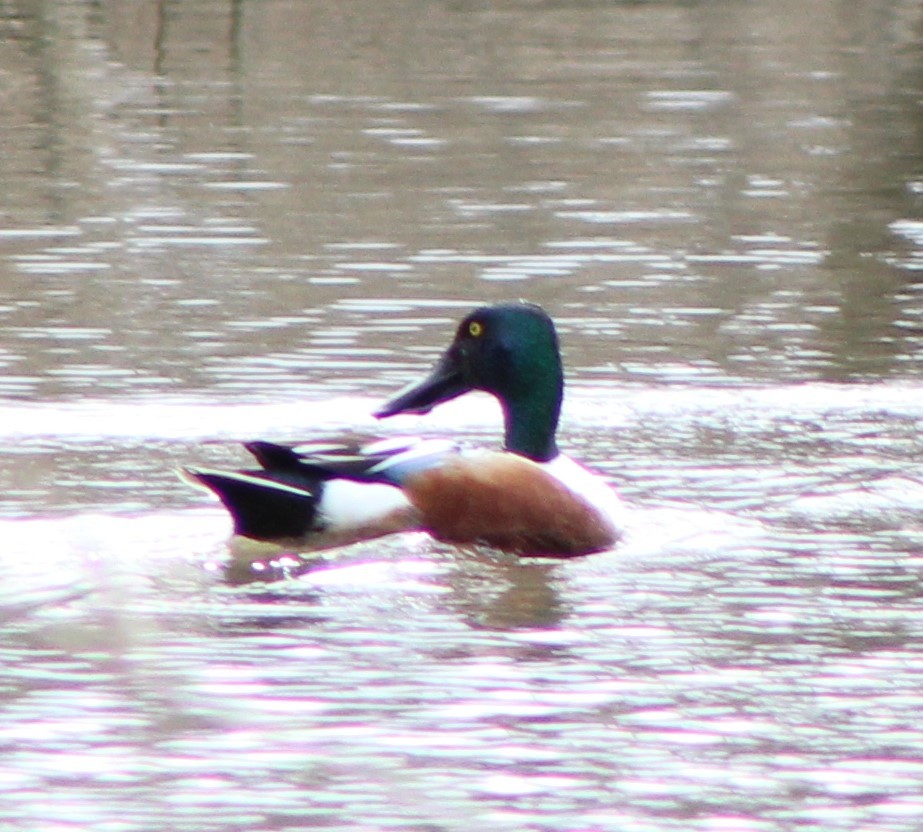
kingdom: Animalia
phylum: Chordata
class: Aves
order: Anseriformes
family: Anatidae
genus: Spatula
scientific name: Spatula clypeata
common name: Northern shoveler
